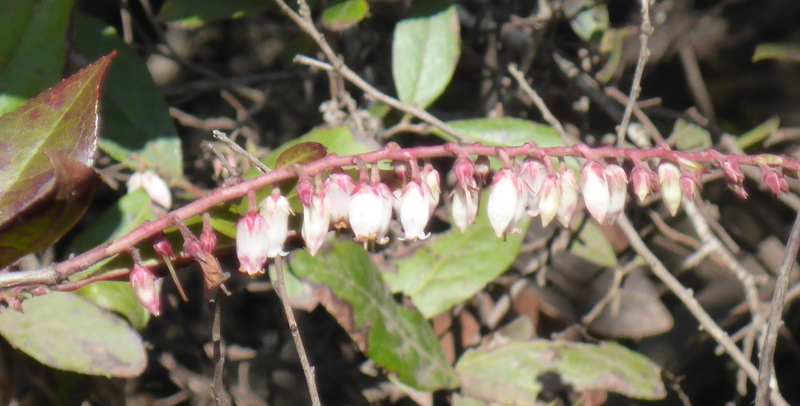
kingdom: Plantae
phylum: Tracheophyta
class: Magnoliopsida
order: Ericales
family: Ericaceae
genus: Eubotrys
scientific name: Eubotrys racemosa
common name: Fetterbush
